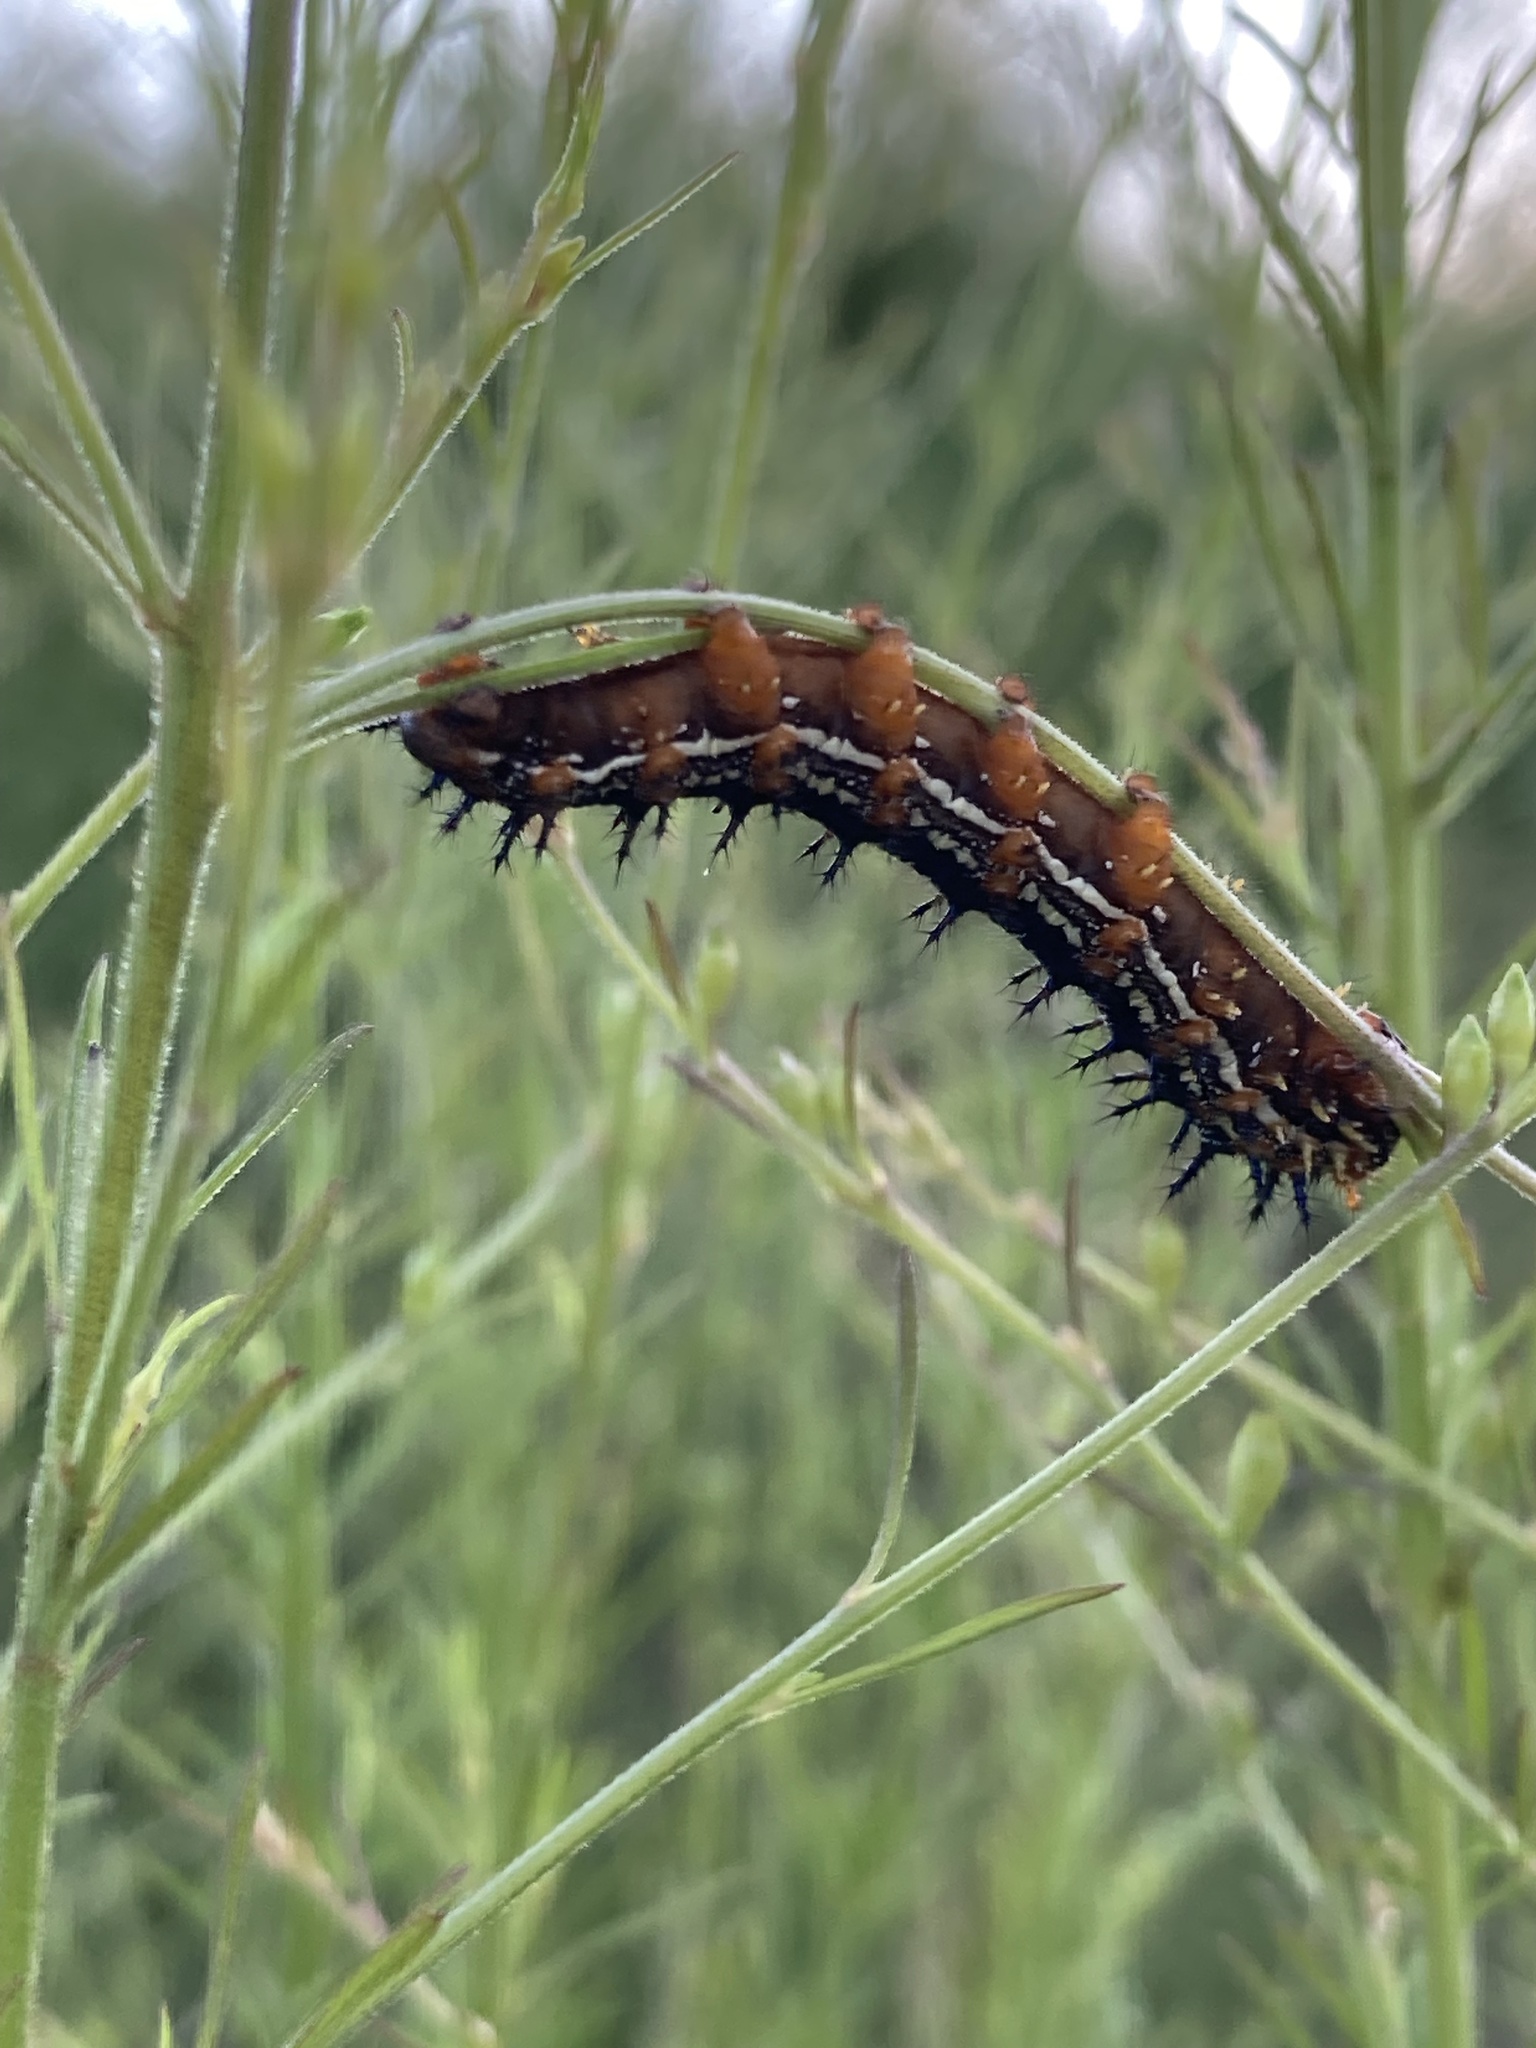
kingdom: Animalia
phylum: Arthropoda
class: Insecta
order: Lepidoptera
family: Nymphalidae
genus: Junonia
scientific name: Junonia coenia
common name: Common buckeye
